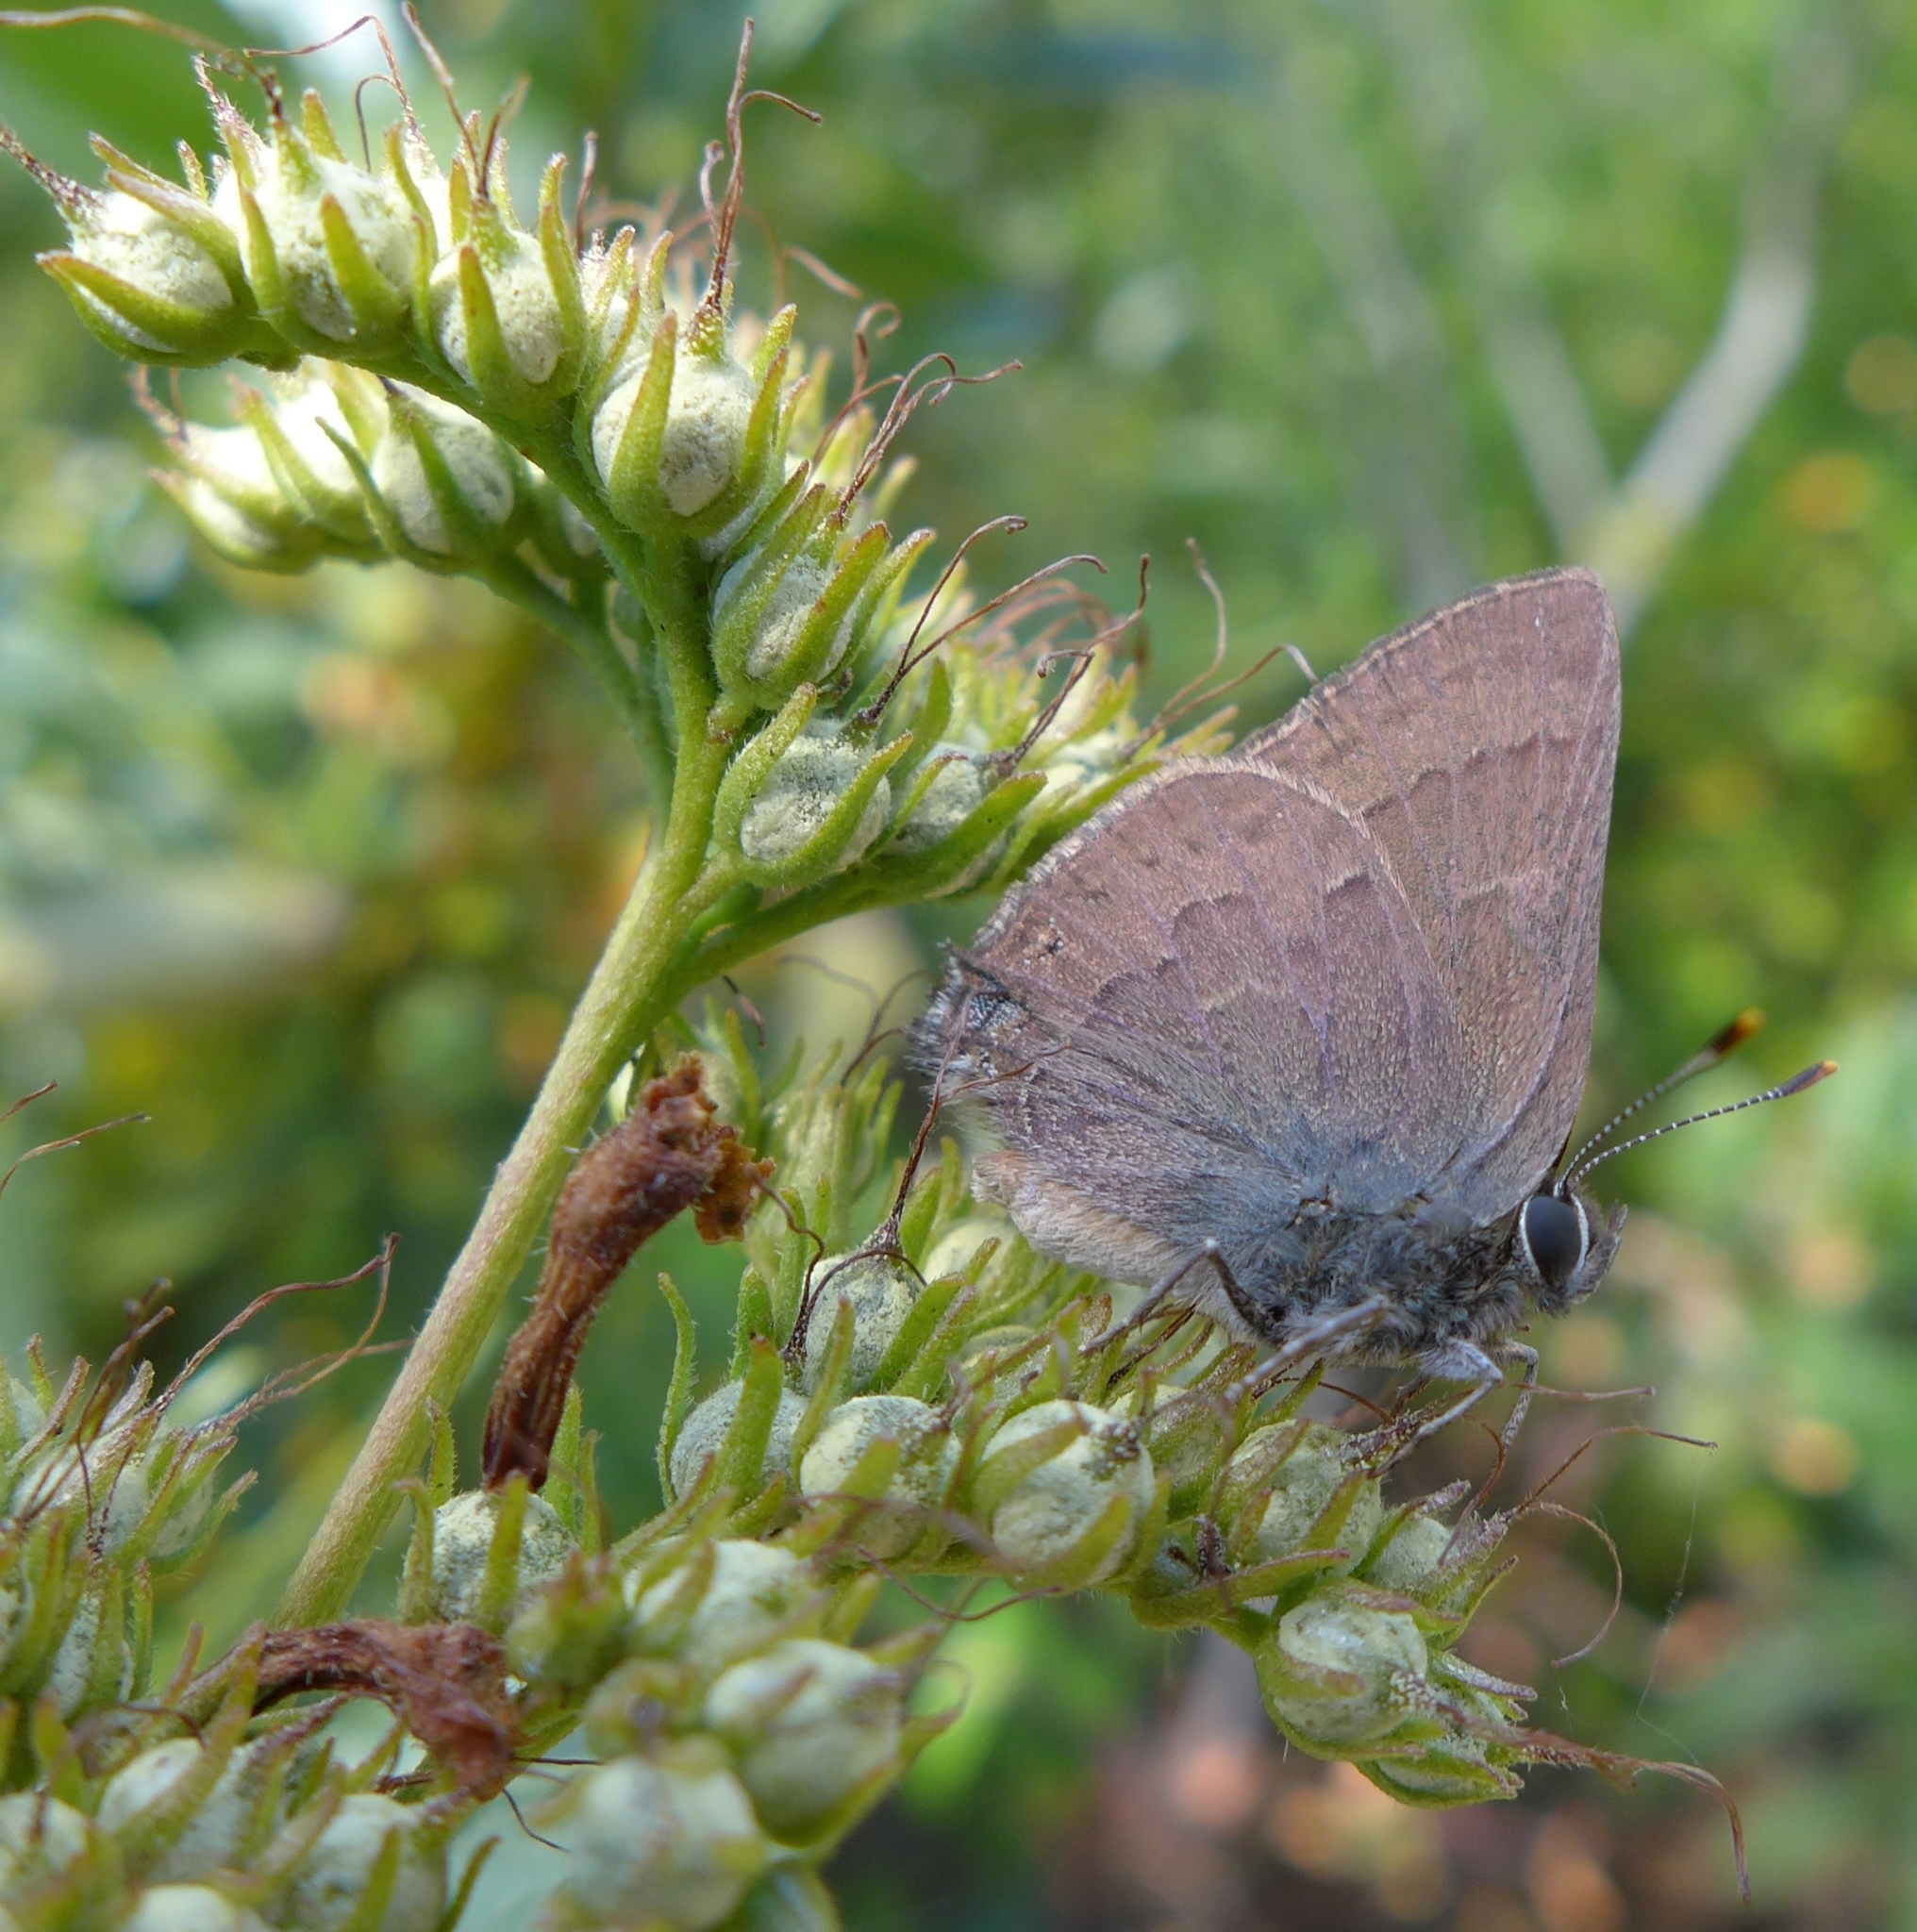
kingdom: Animalia
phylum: Arthropoda
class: Insecta
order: Lepidoptera
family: Lycaenidae
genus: Strymon
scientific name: Strymon saepium
